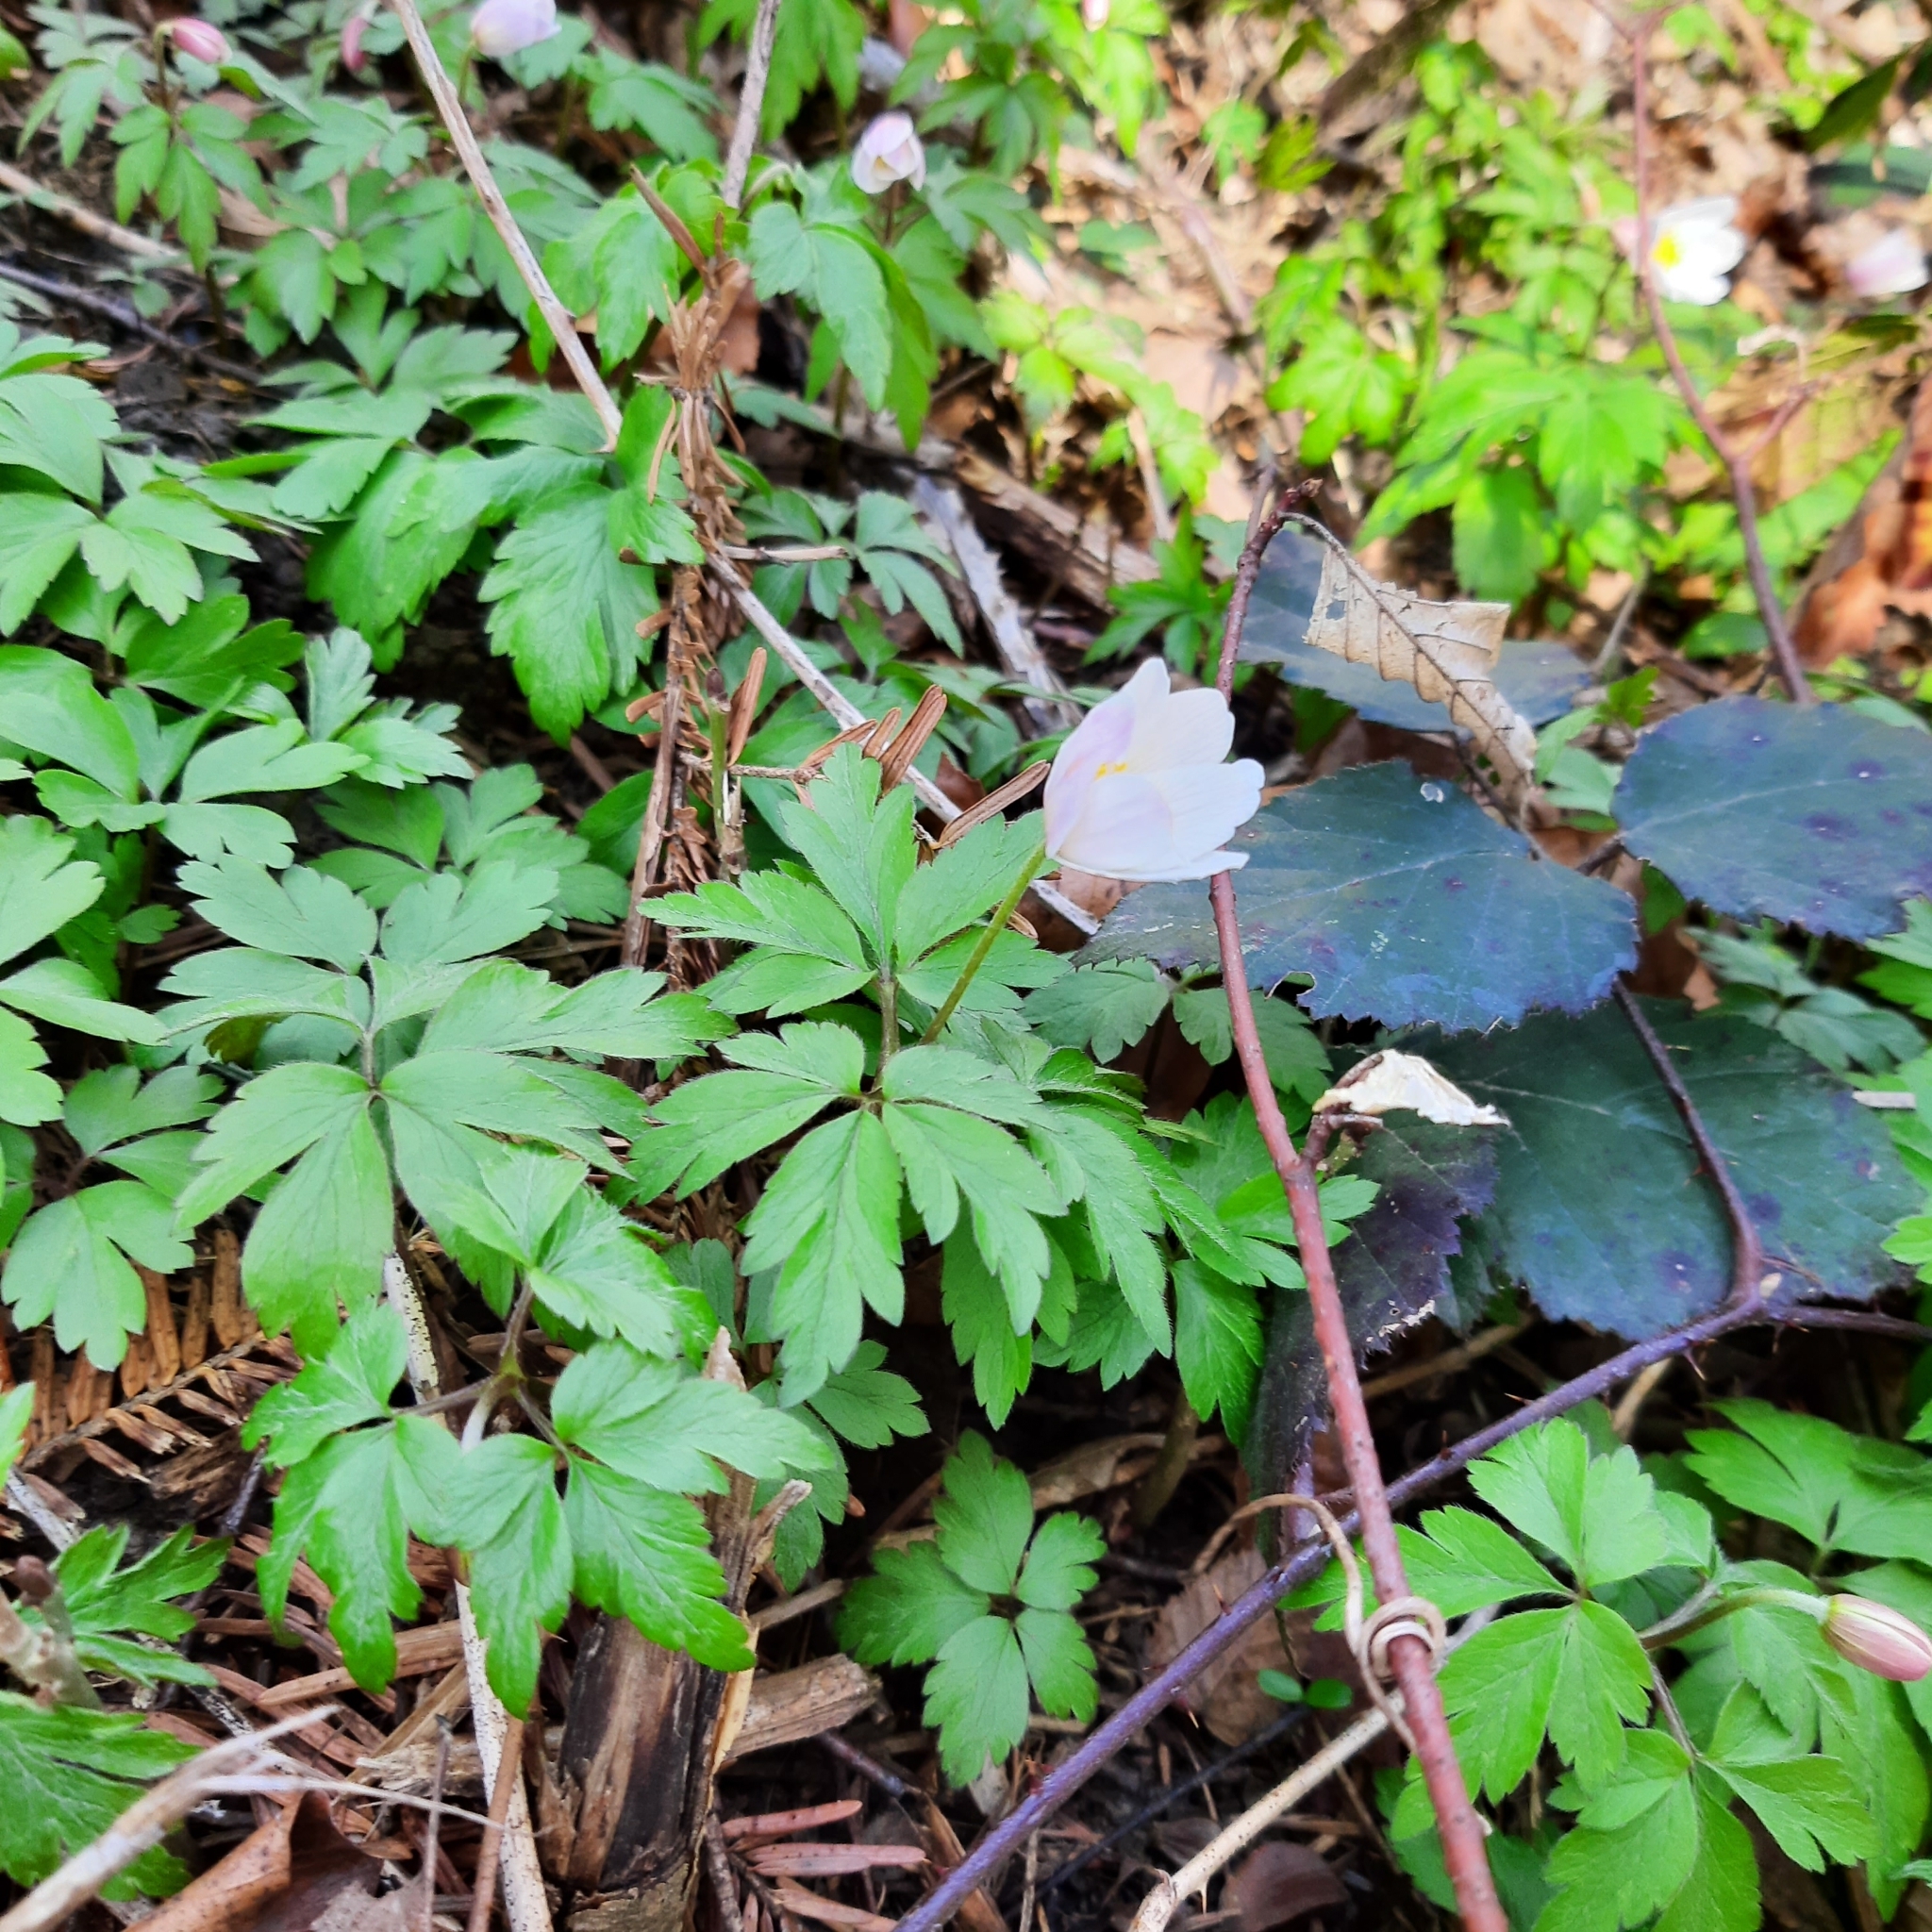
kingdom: Plantae
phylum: Tracheophyta
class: Magnoliopsida
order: Ranunculales
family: Ranunculaceae
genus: Anemone
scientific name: Anemone nemorosa
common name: Wood anemone
